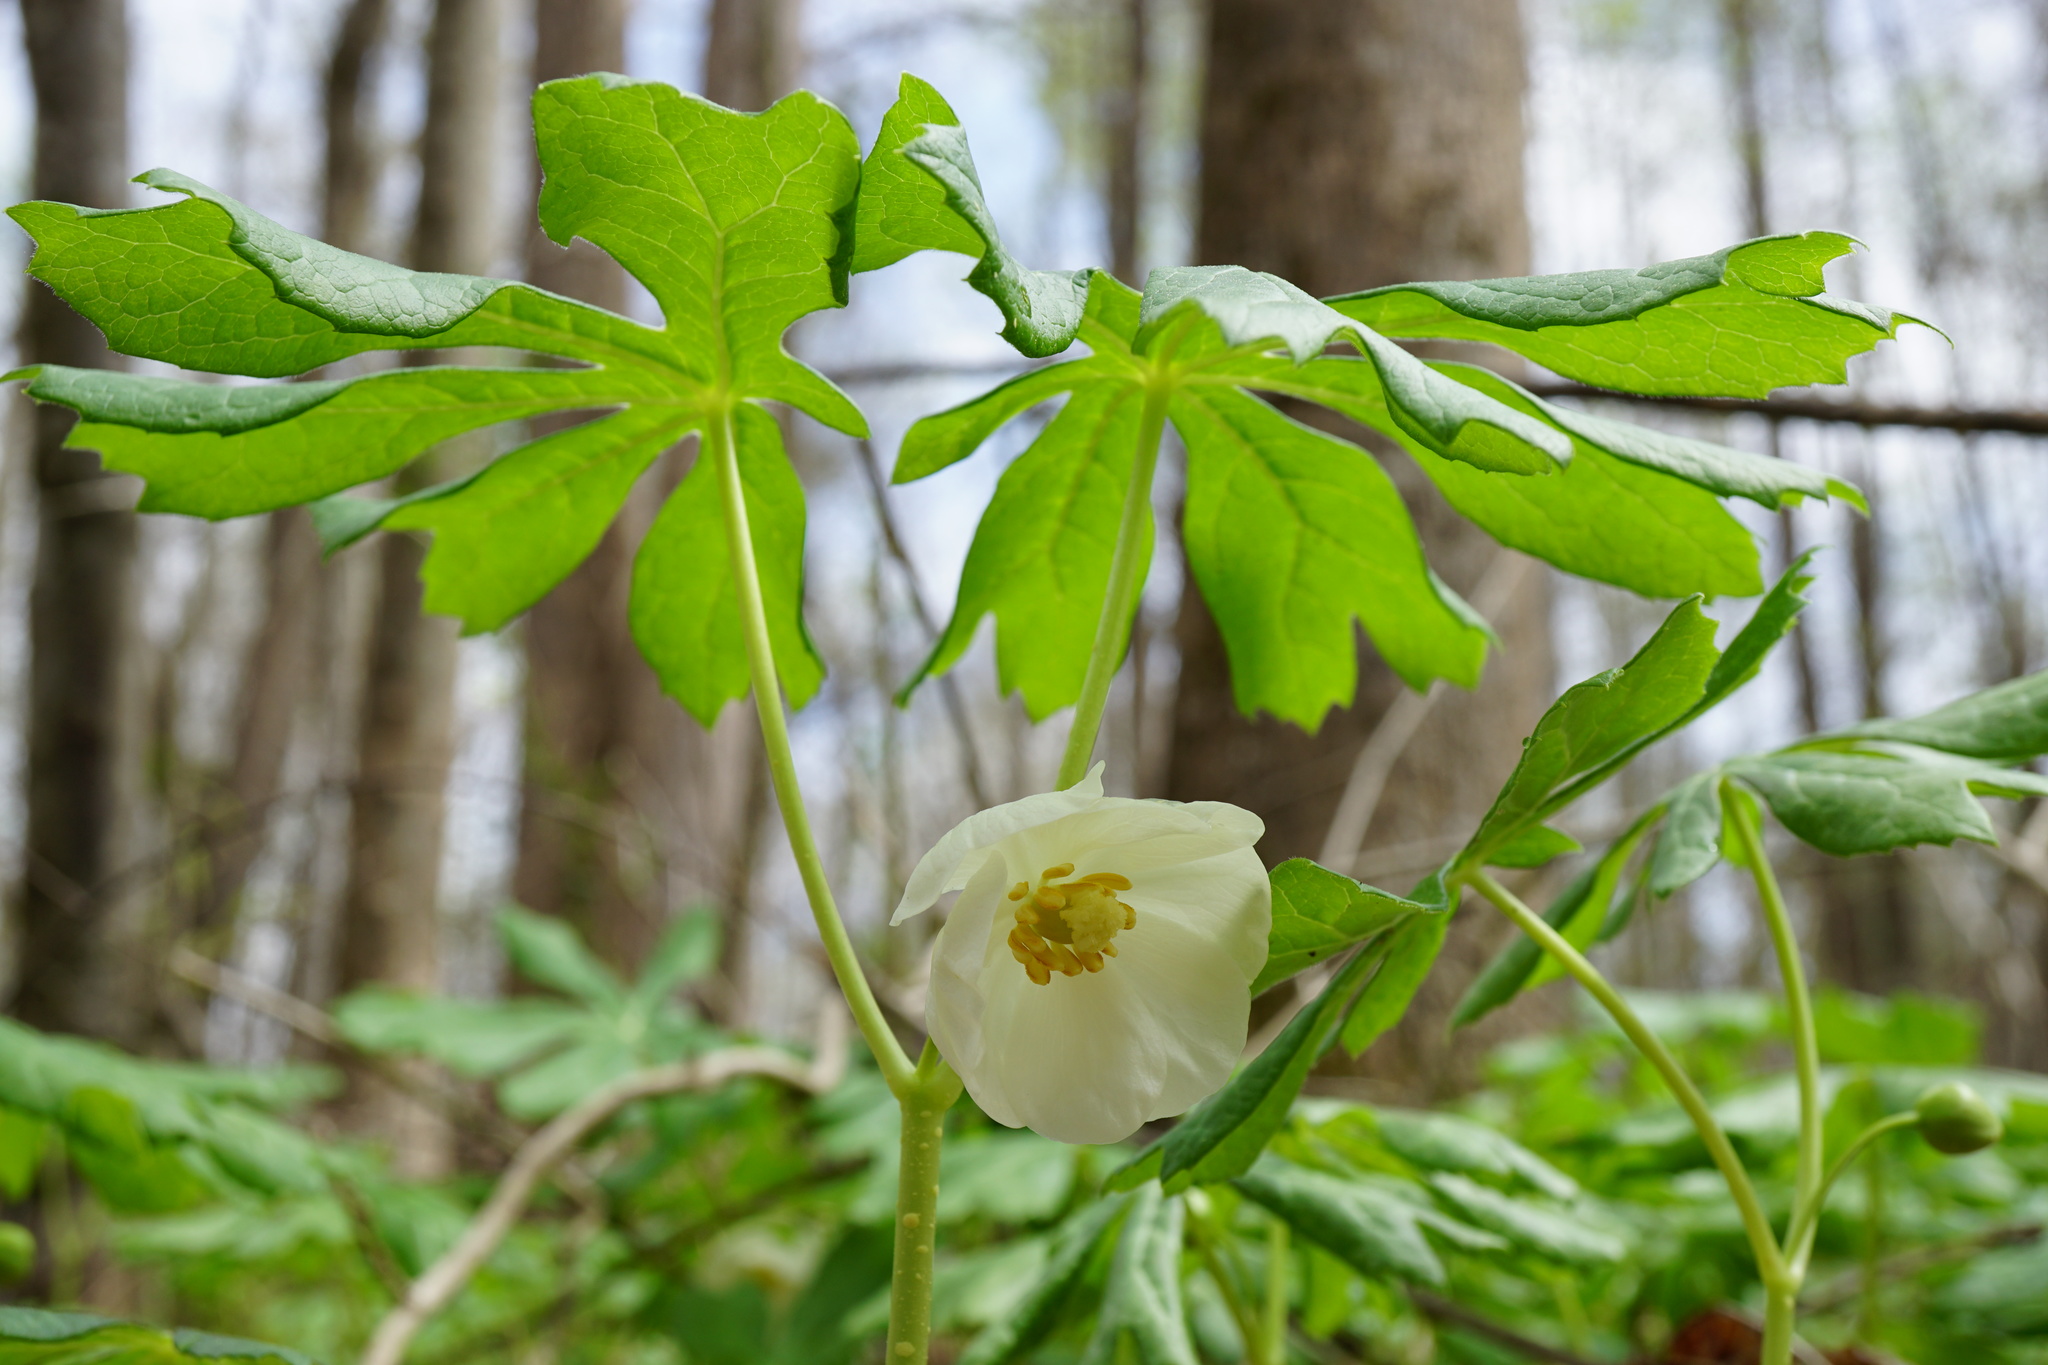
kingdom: Plantae
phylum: Tracheophyta
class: Magnoliopsida
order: Ranunculales
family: Berberidaceae
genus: Podophyllum
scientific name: Podophyllum peltatum
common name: Wild mandrake
